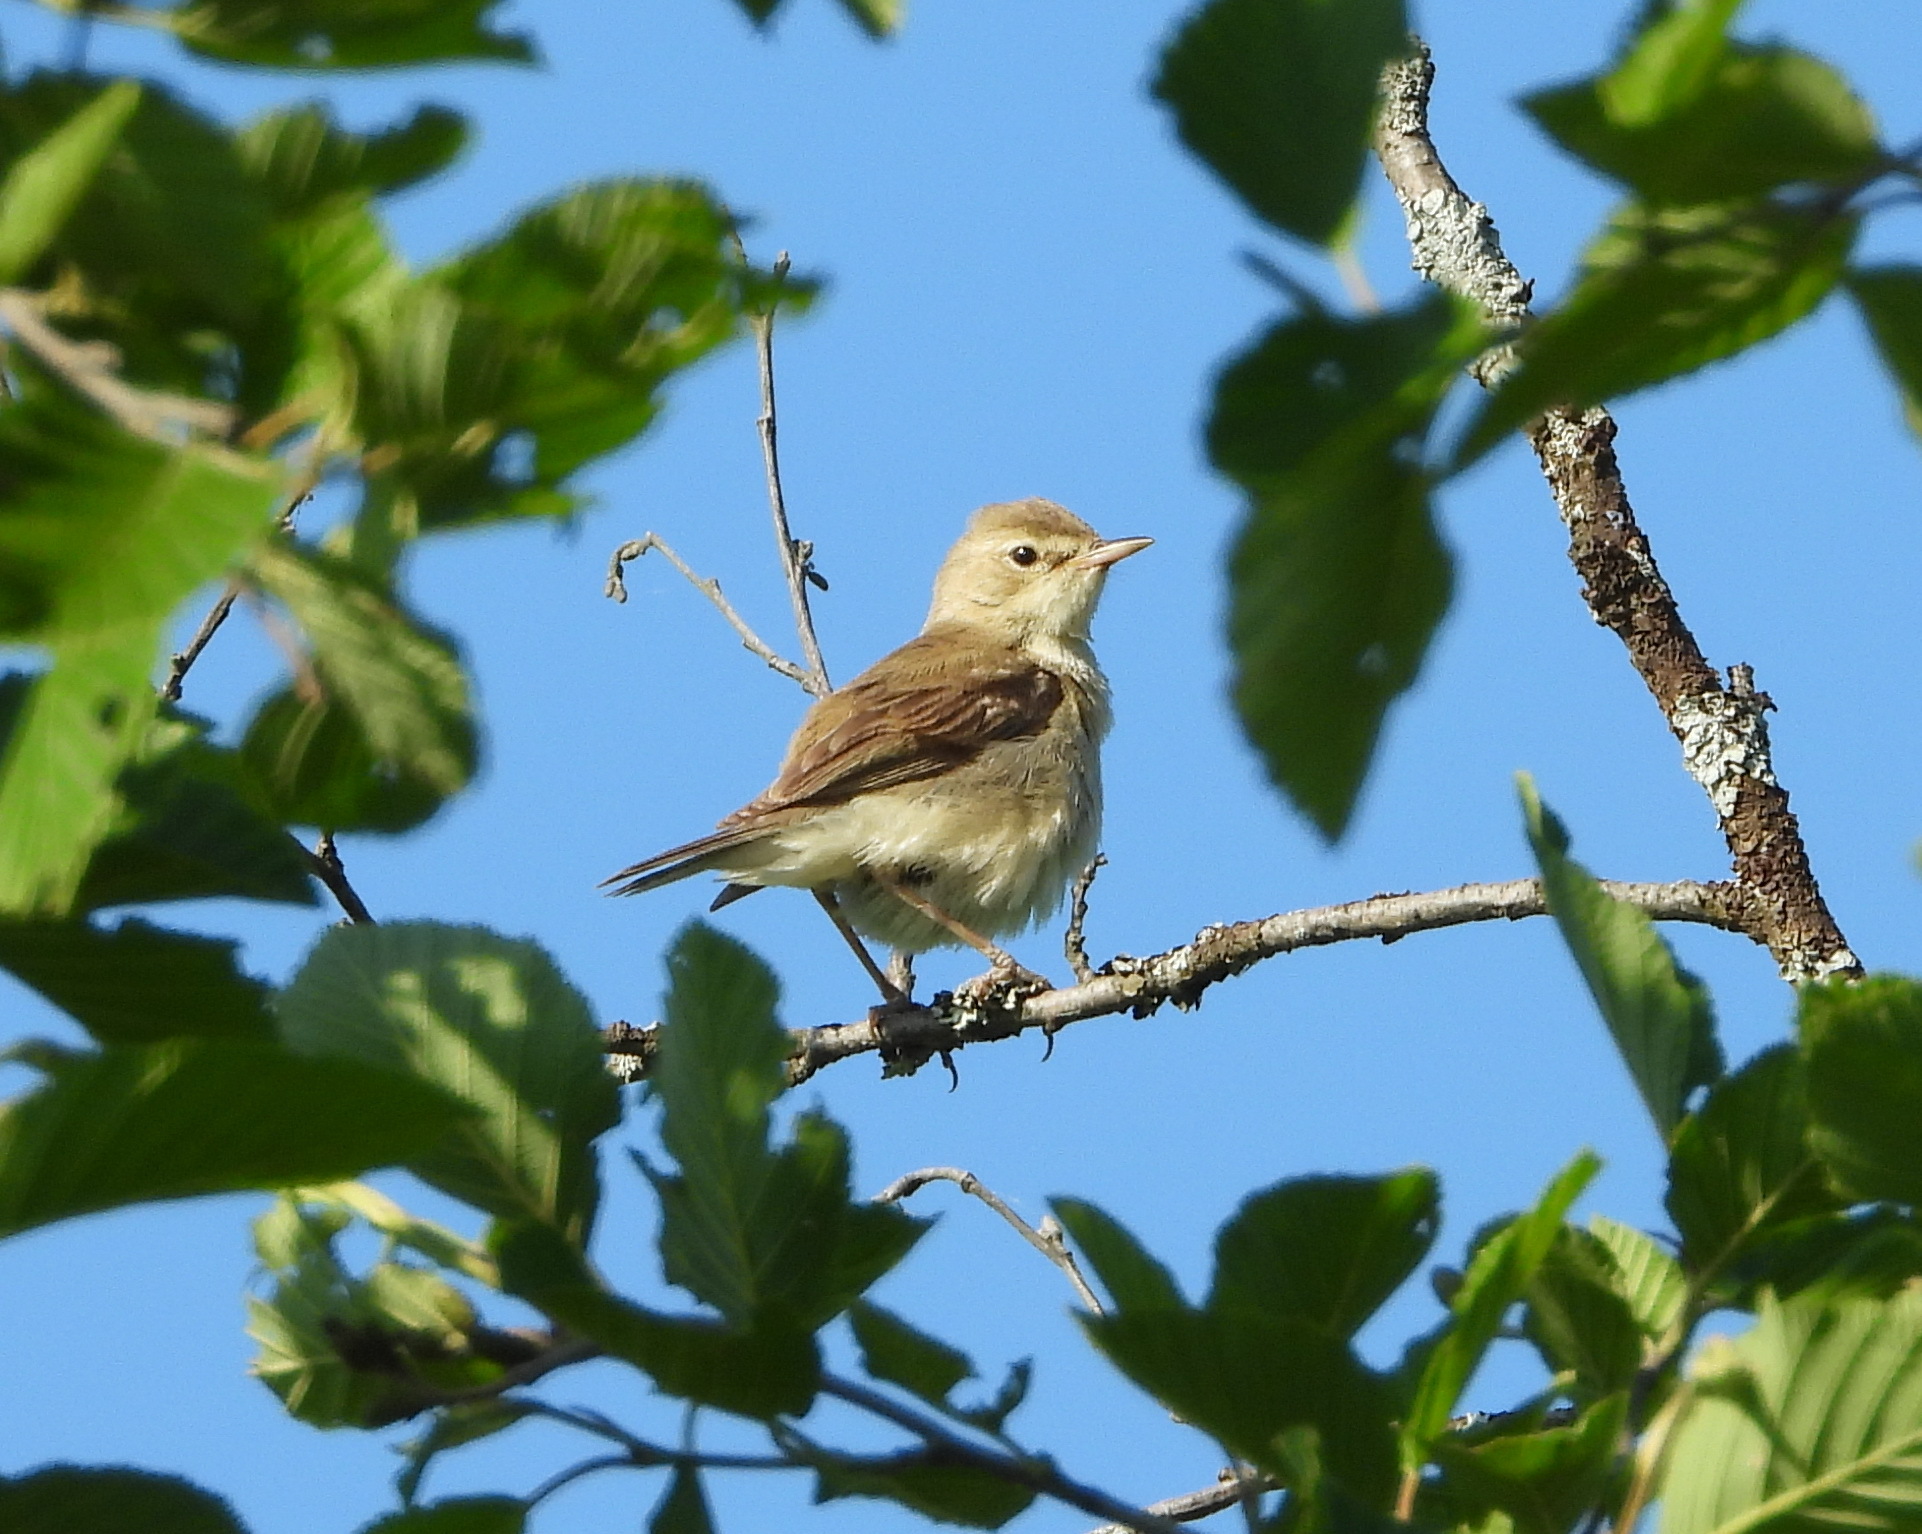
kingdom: Animalia
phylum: Chordata
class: Aves
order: Passeriformes
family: Acrocephalidae
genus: Iduna
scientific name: Iduna caligata
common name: Booted warbler
